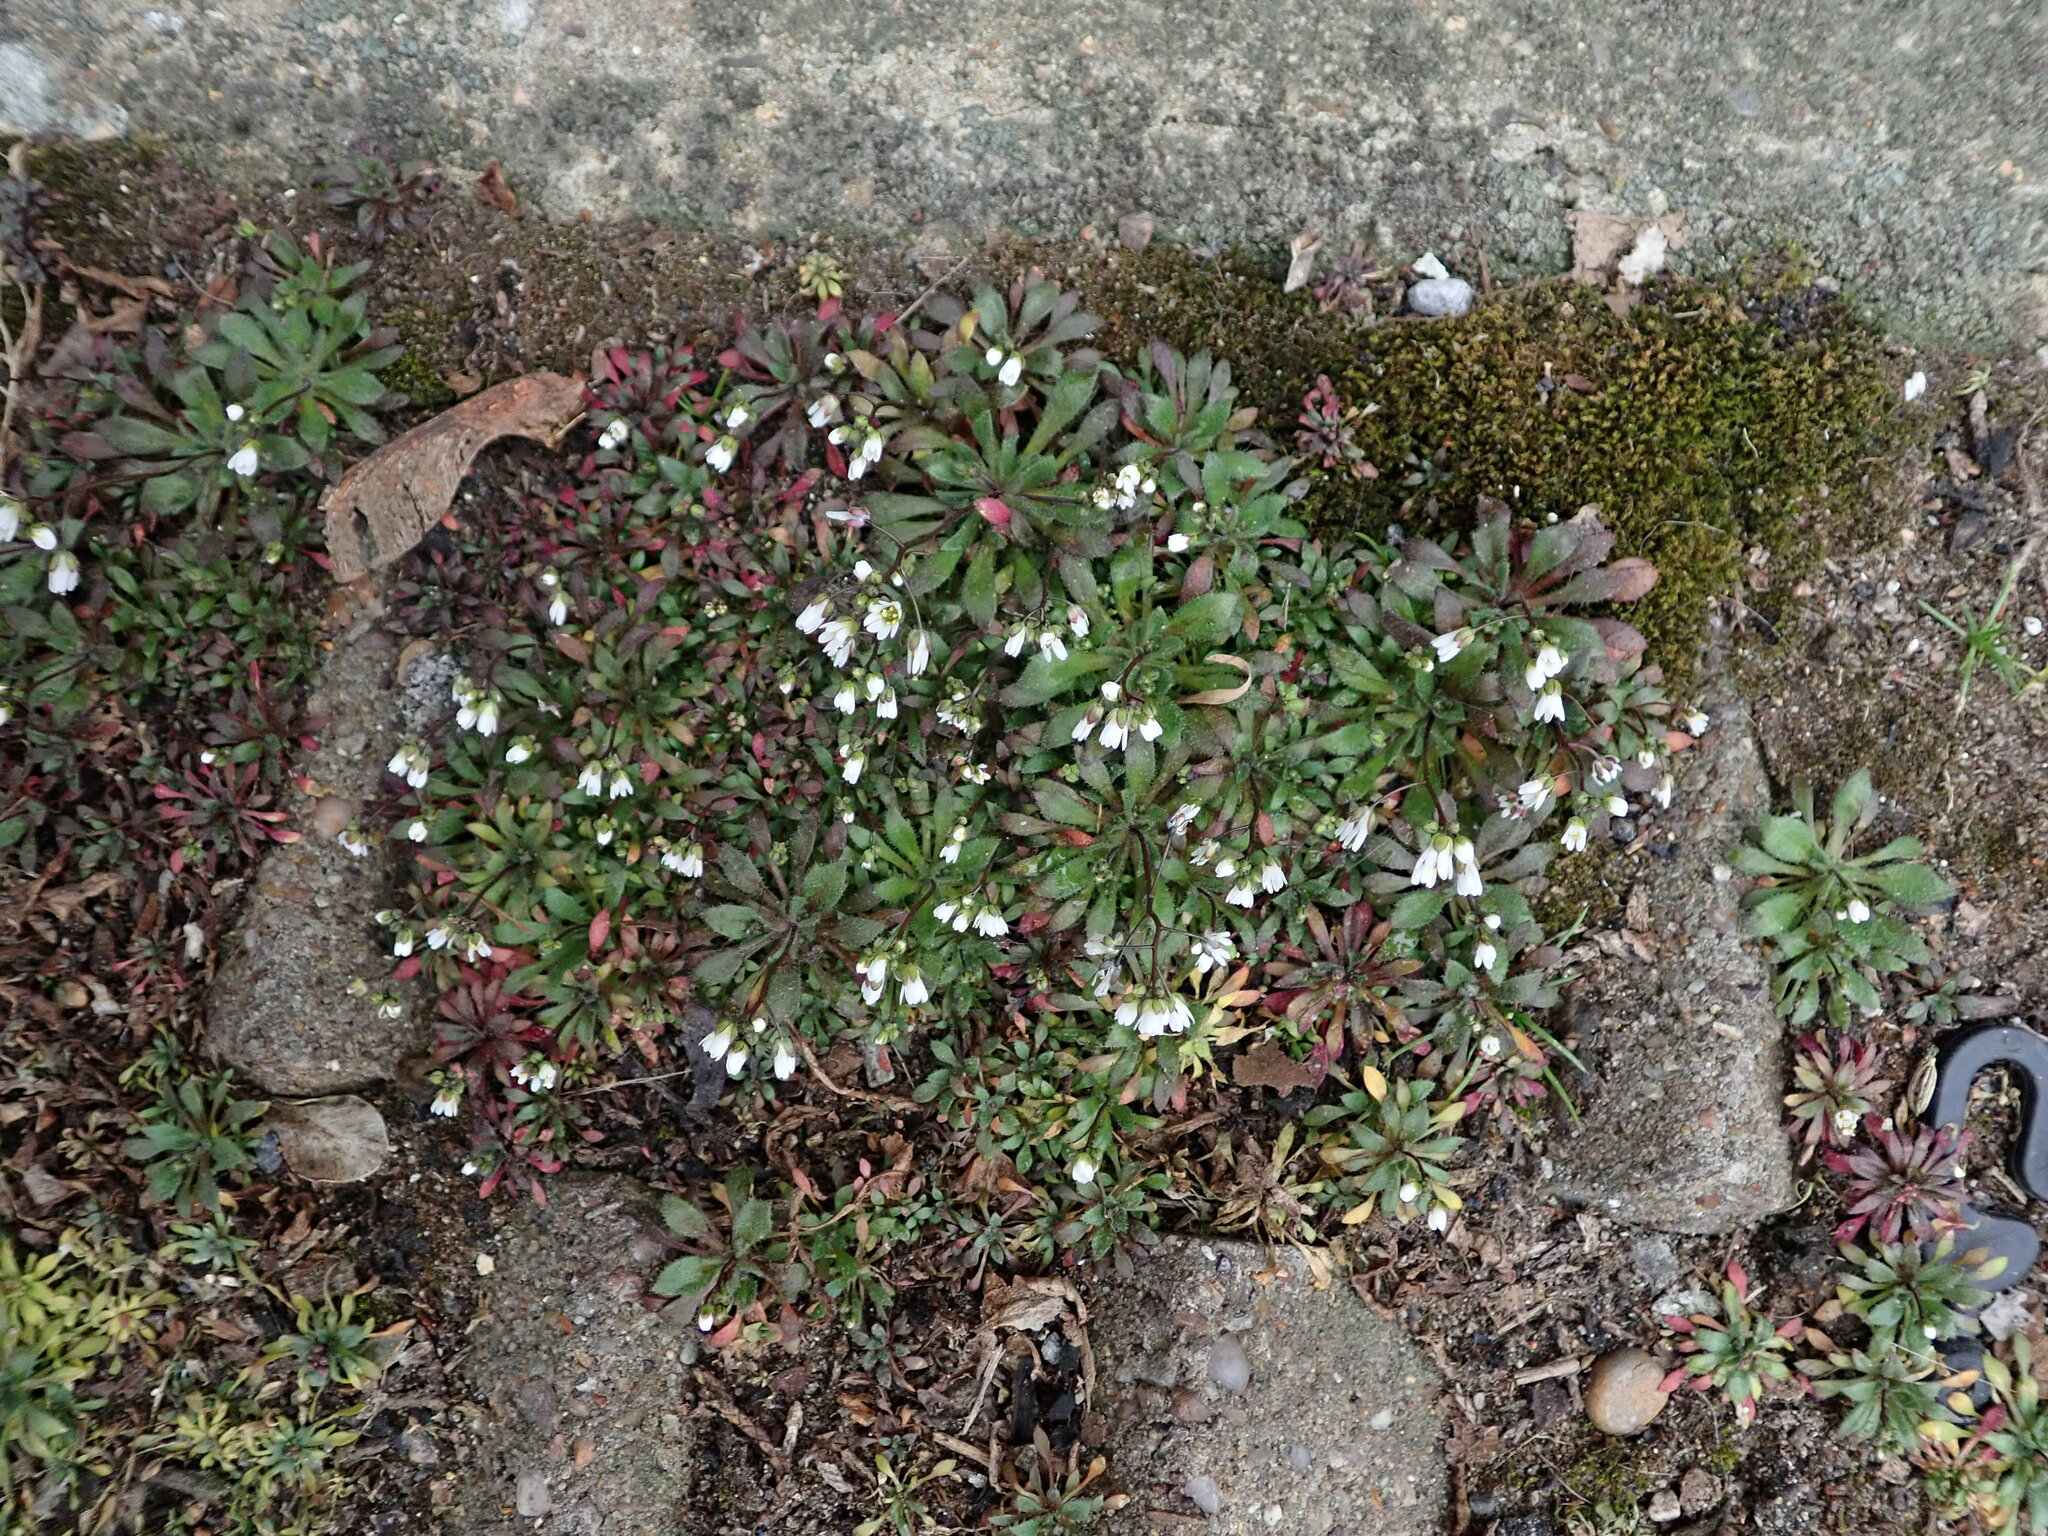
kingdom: Plantae
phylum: Tracheophyta
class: Magnoliopsida
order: Brassicales
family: Brassicaceae
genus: Draba
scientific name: Draba verna
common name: Spring draba
